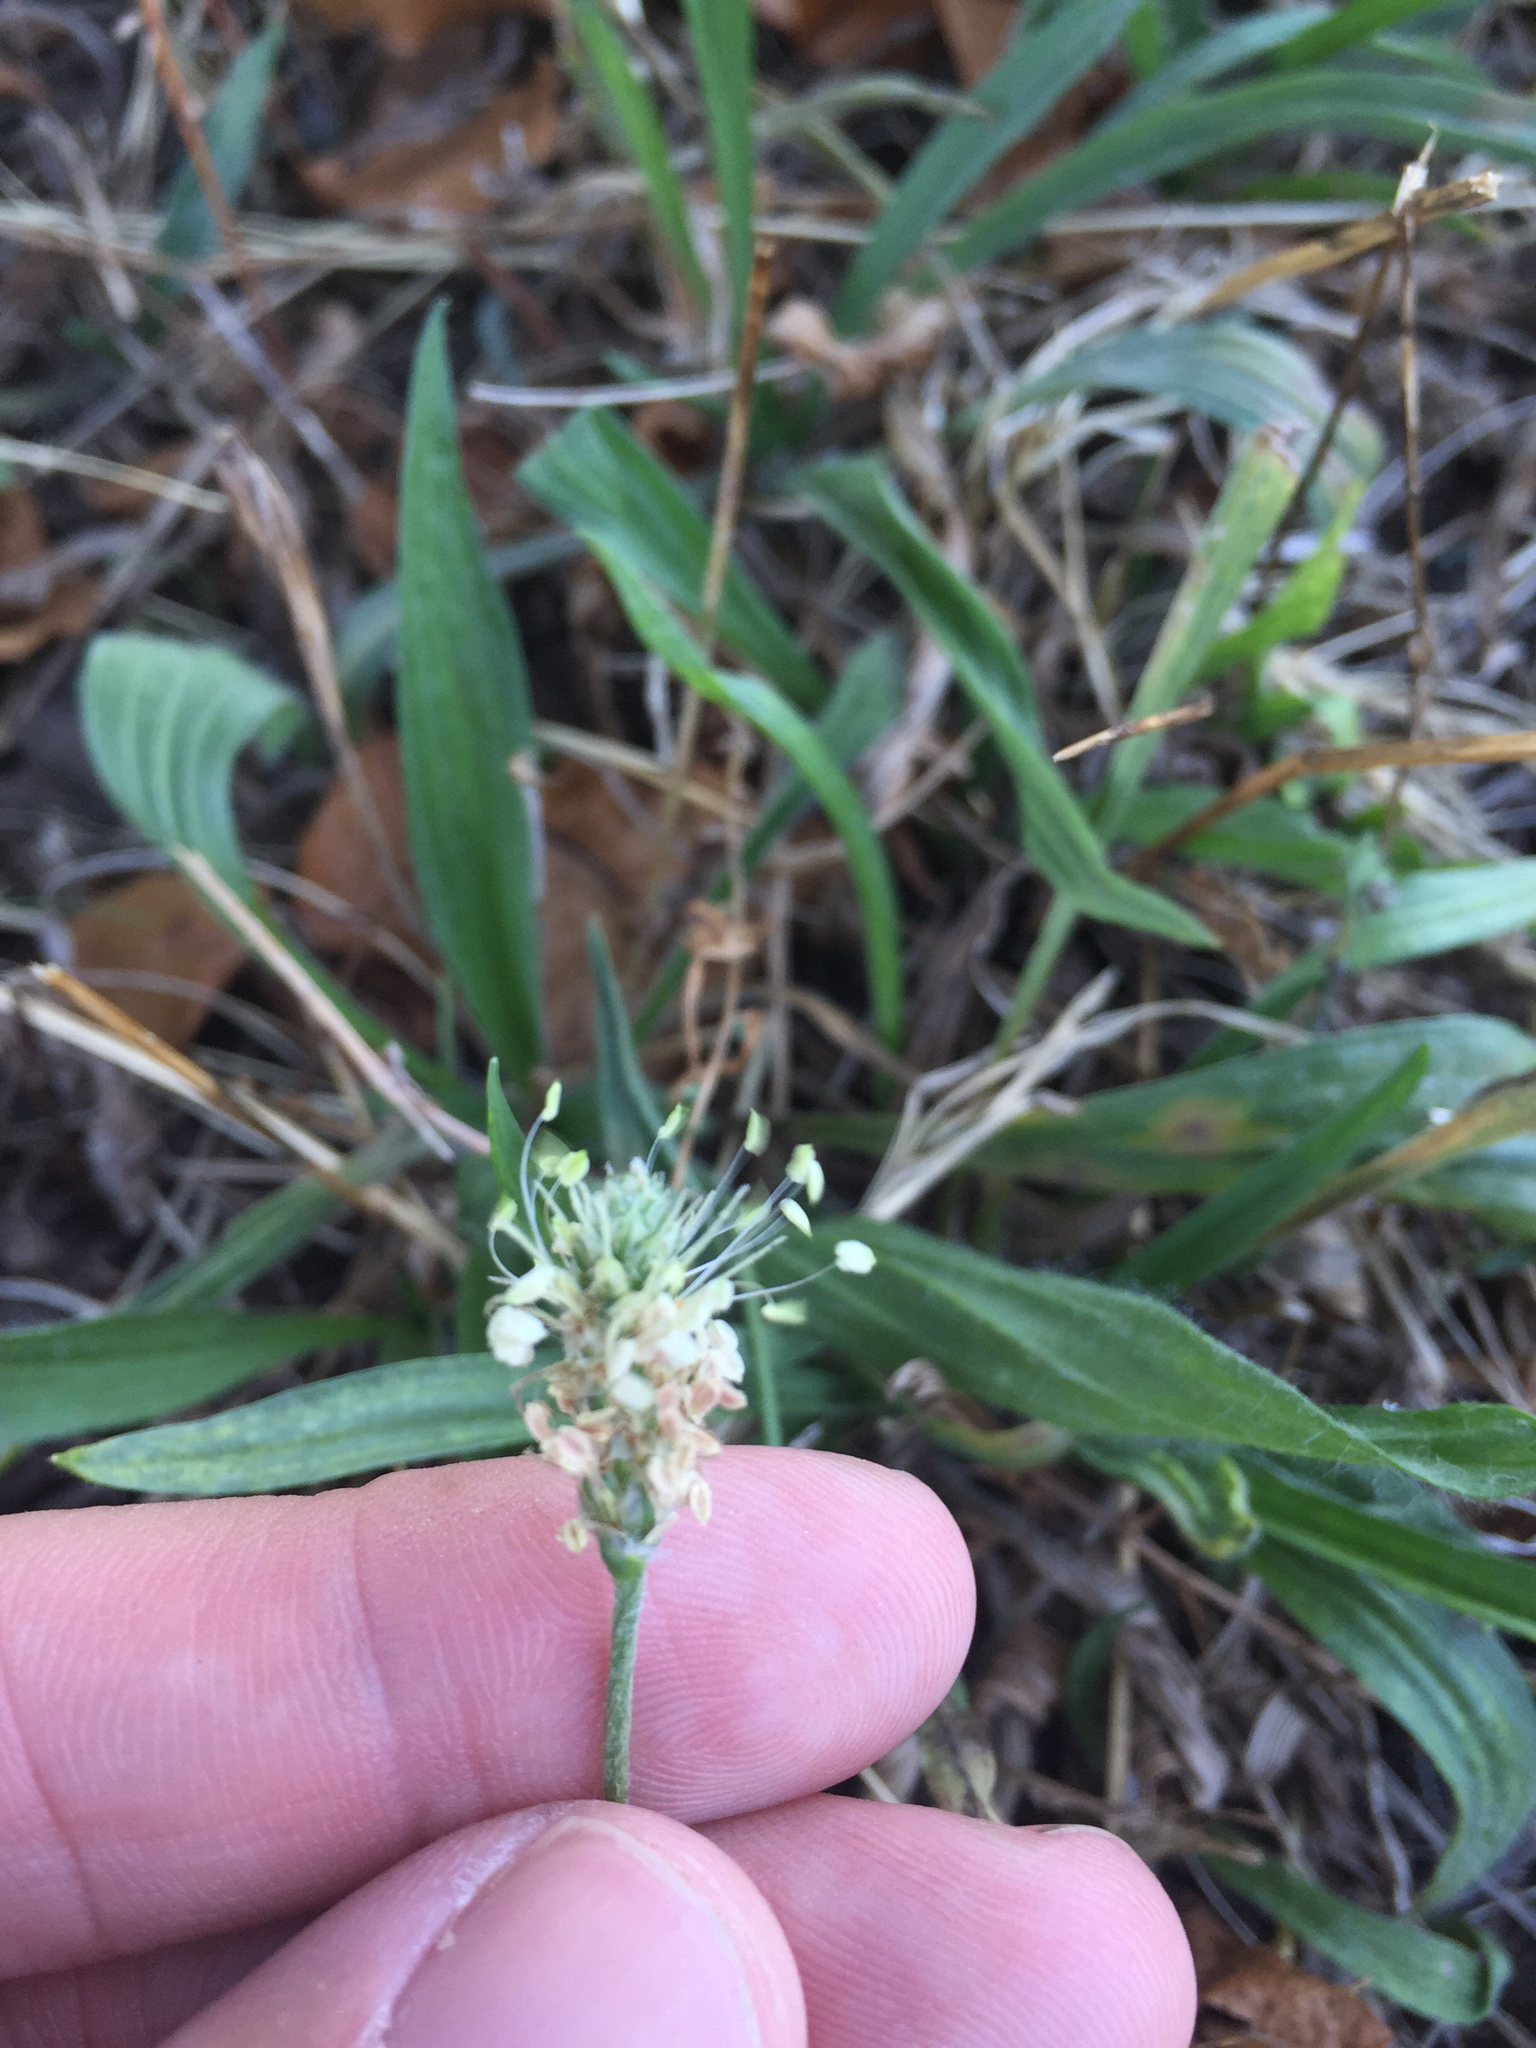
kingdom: Plantae
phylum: Tracheophyta
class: Magnoliopsida
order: Lamiales
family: Plantaginaceae
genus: Plantago
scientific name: Plantago lanceolata
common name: Ribwort plantain
